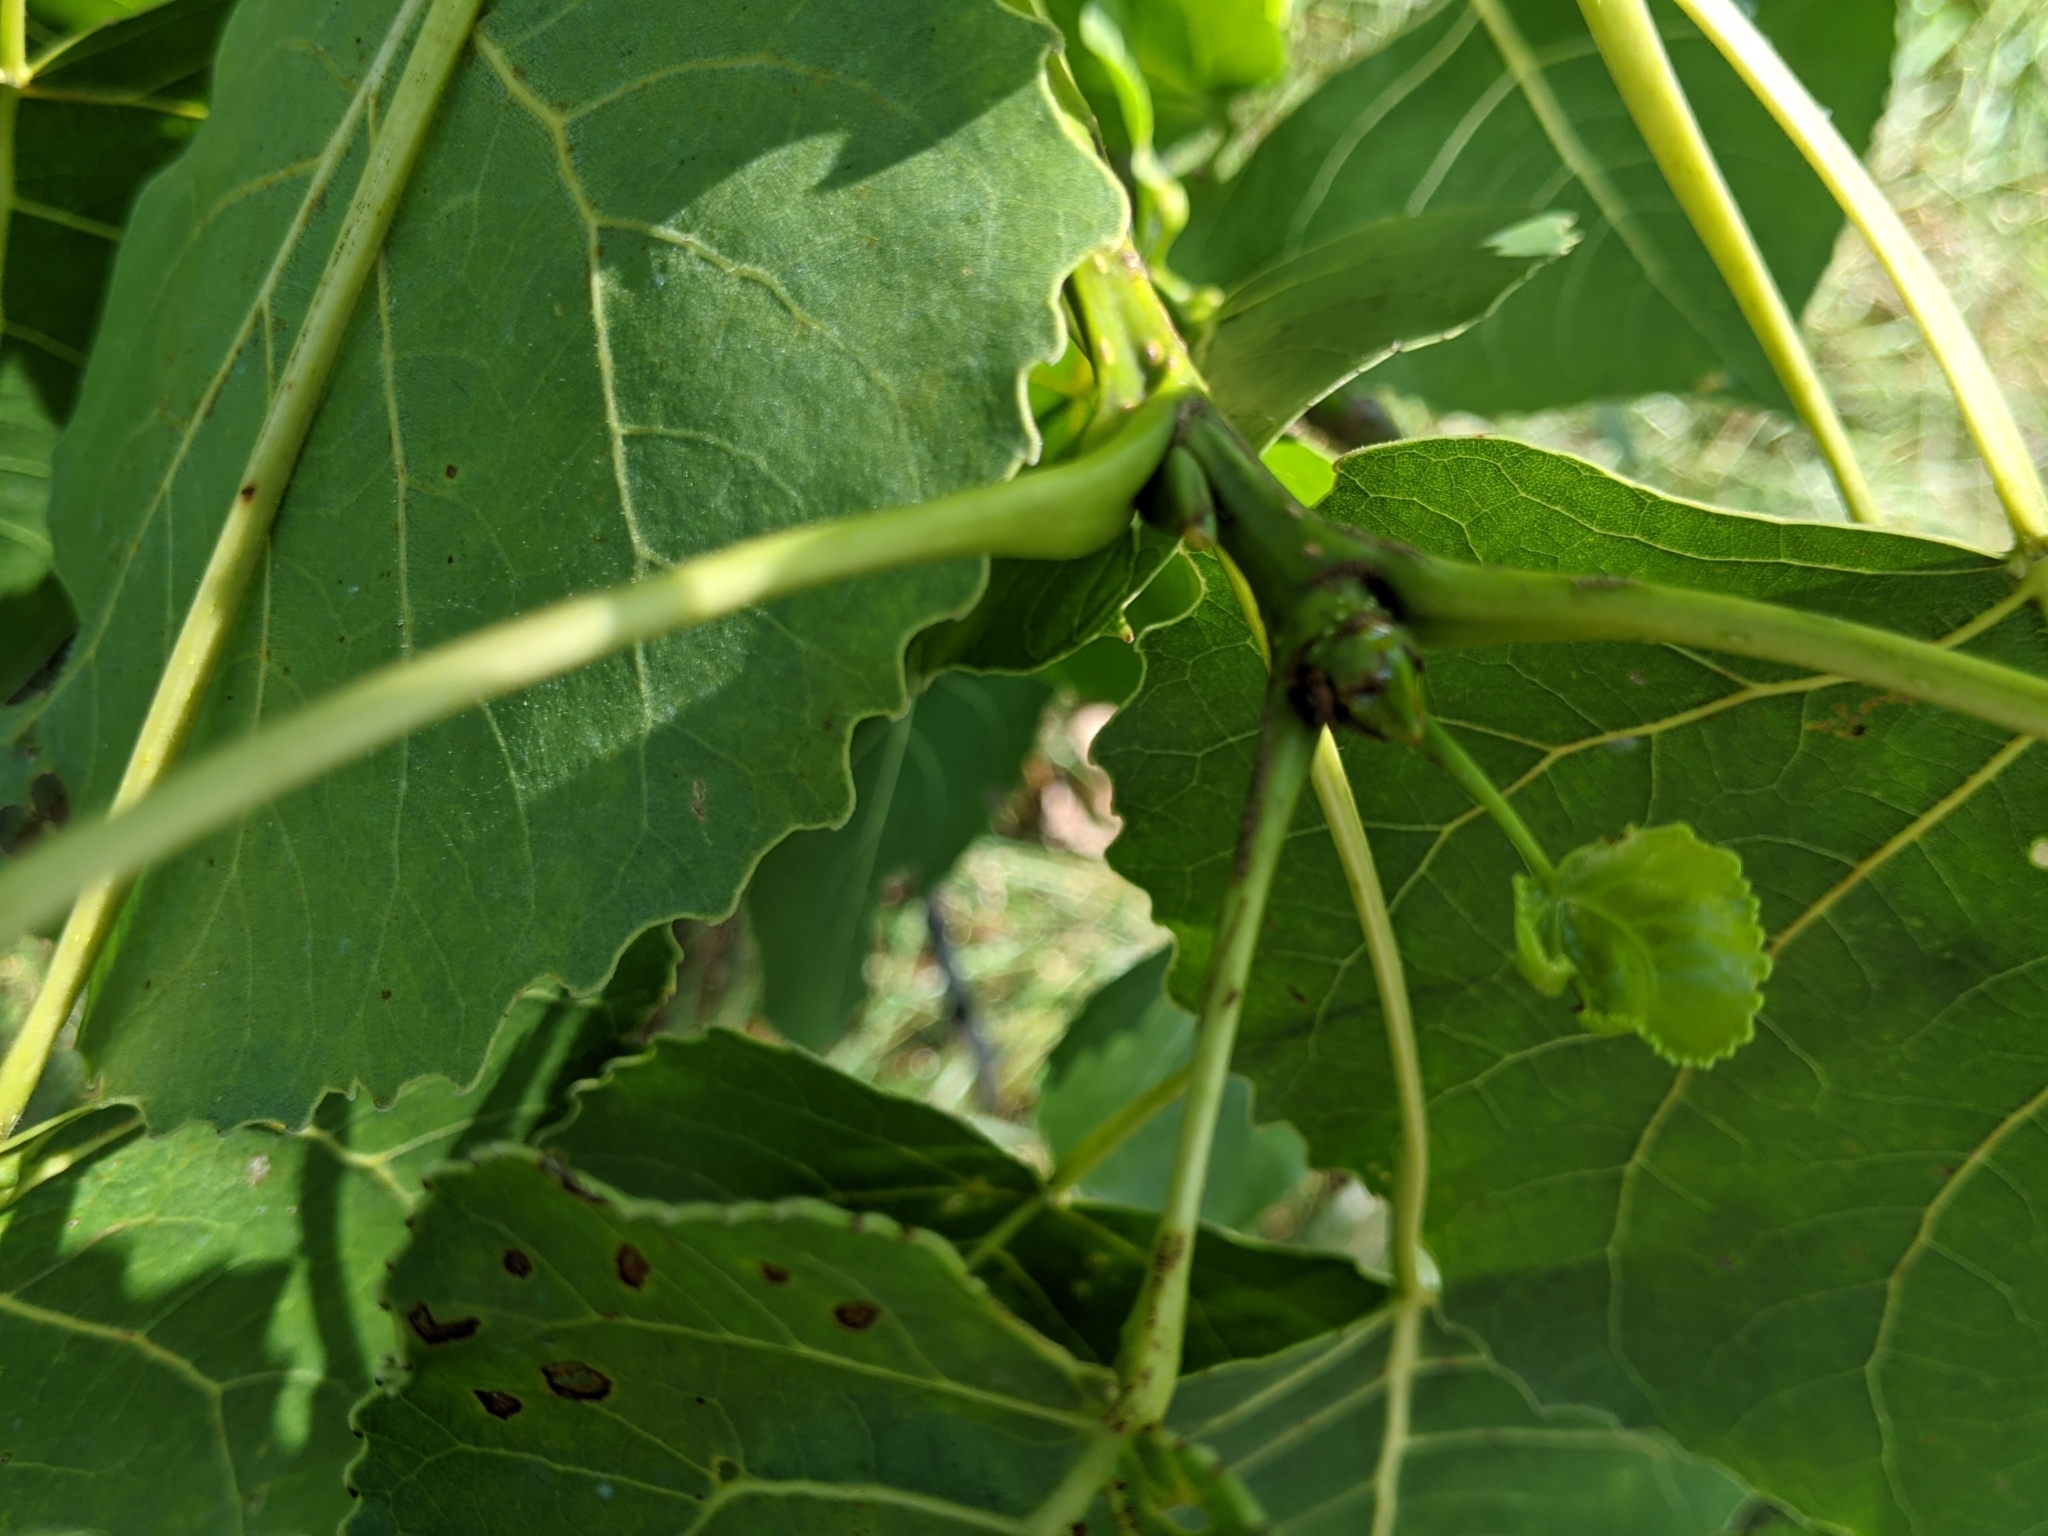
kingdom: Plantae
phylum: Tracheophyta
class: Magnoliopsida
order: Malpighiales
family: Salicaceae
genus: Populus
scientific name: Populus deltoides
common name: Eastern cottonwood
